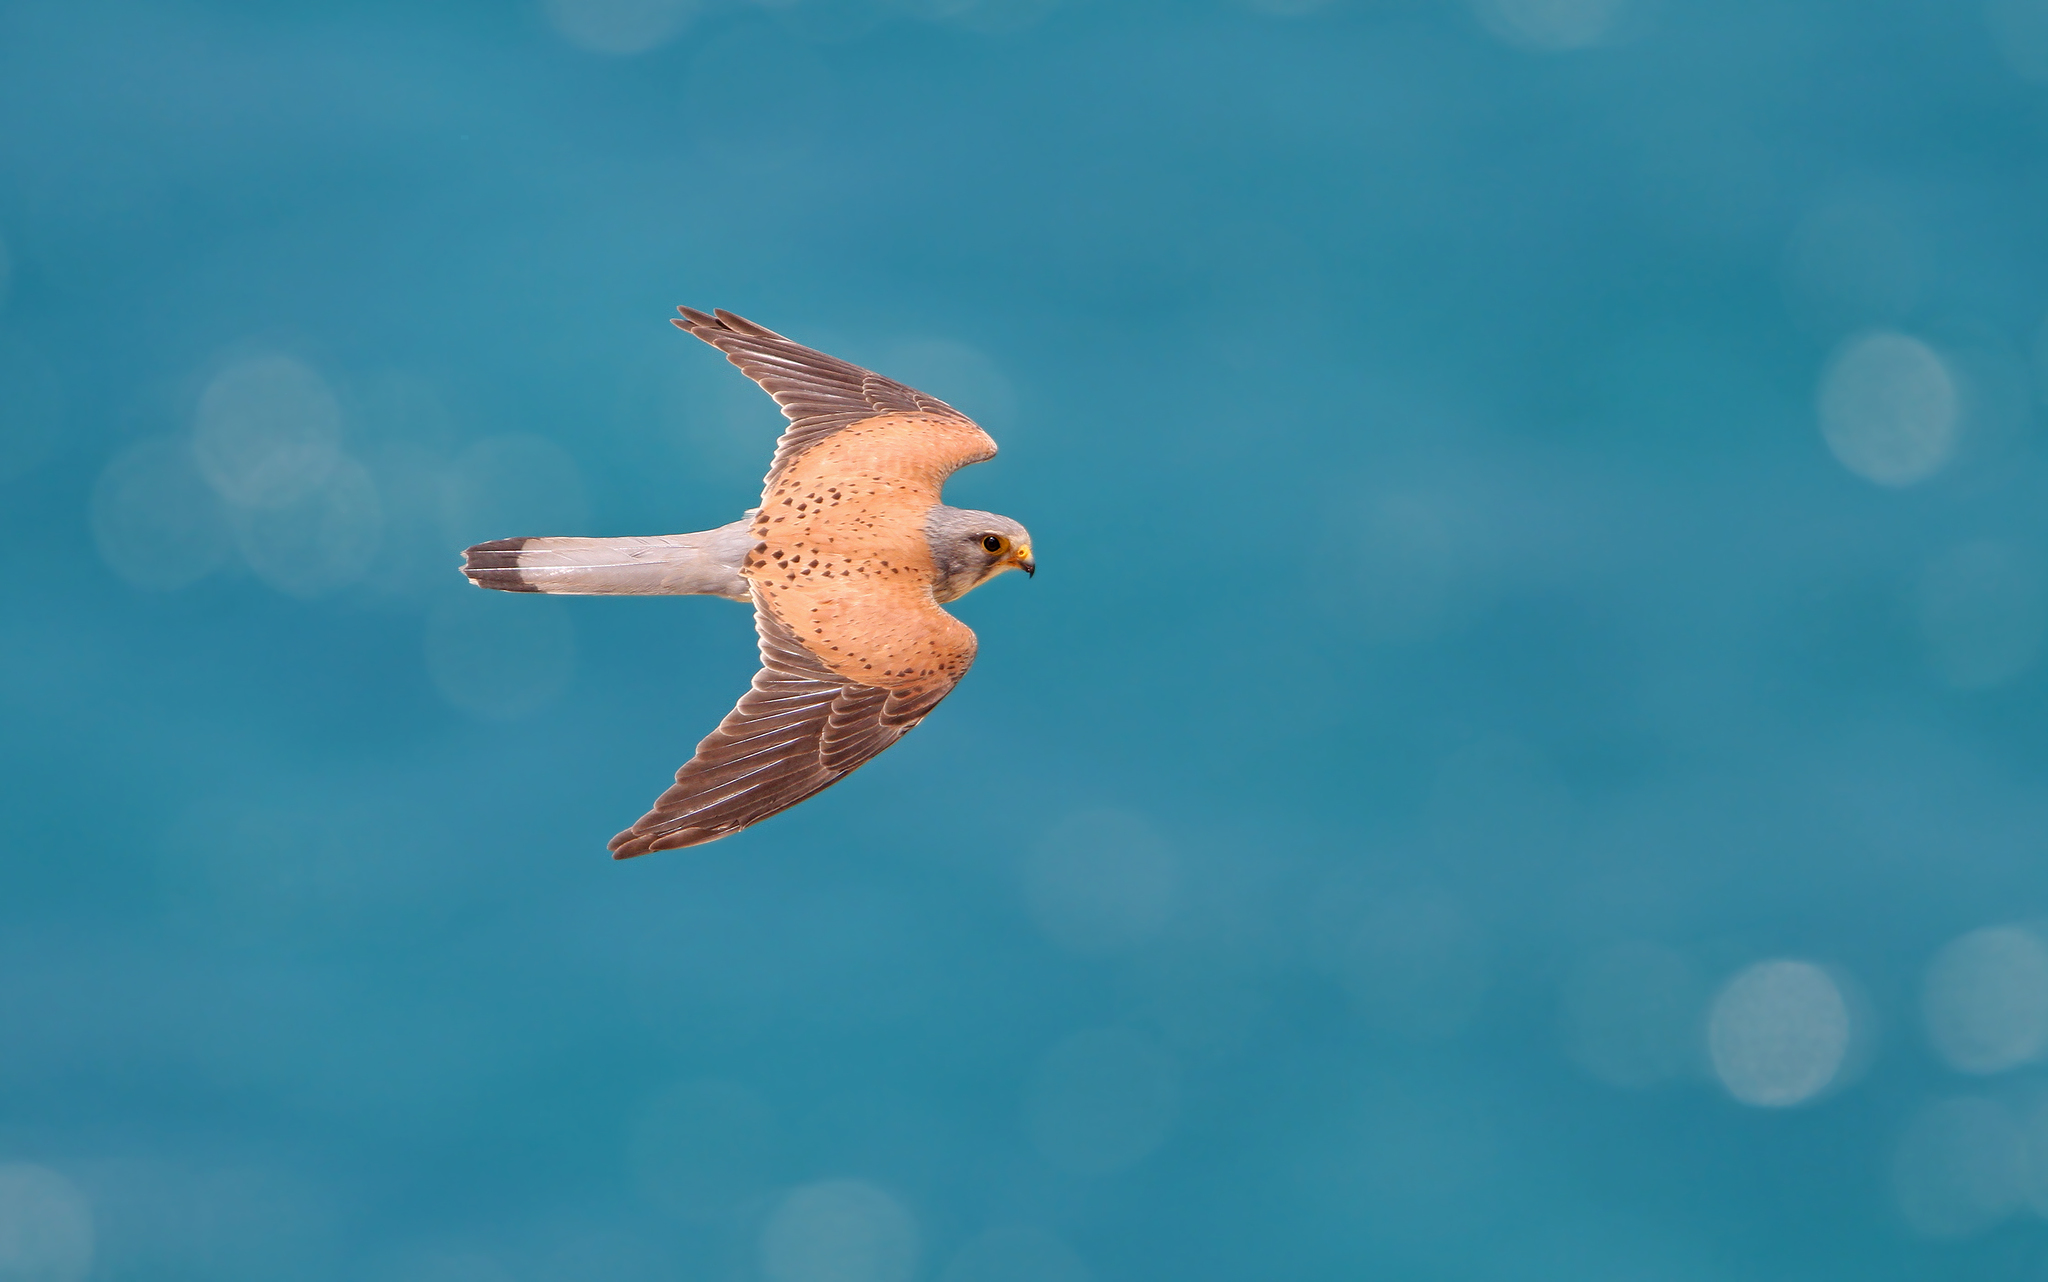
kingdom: Animalia
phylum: Chordata
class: Aves
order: Falconiformes
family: Falconidae
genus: Falco
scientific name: Falco tinnunculus
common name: Common kestrel
